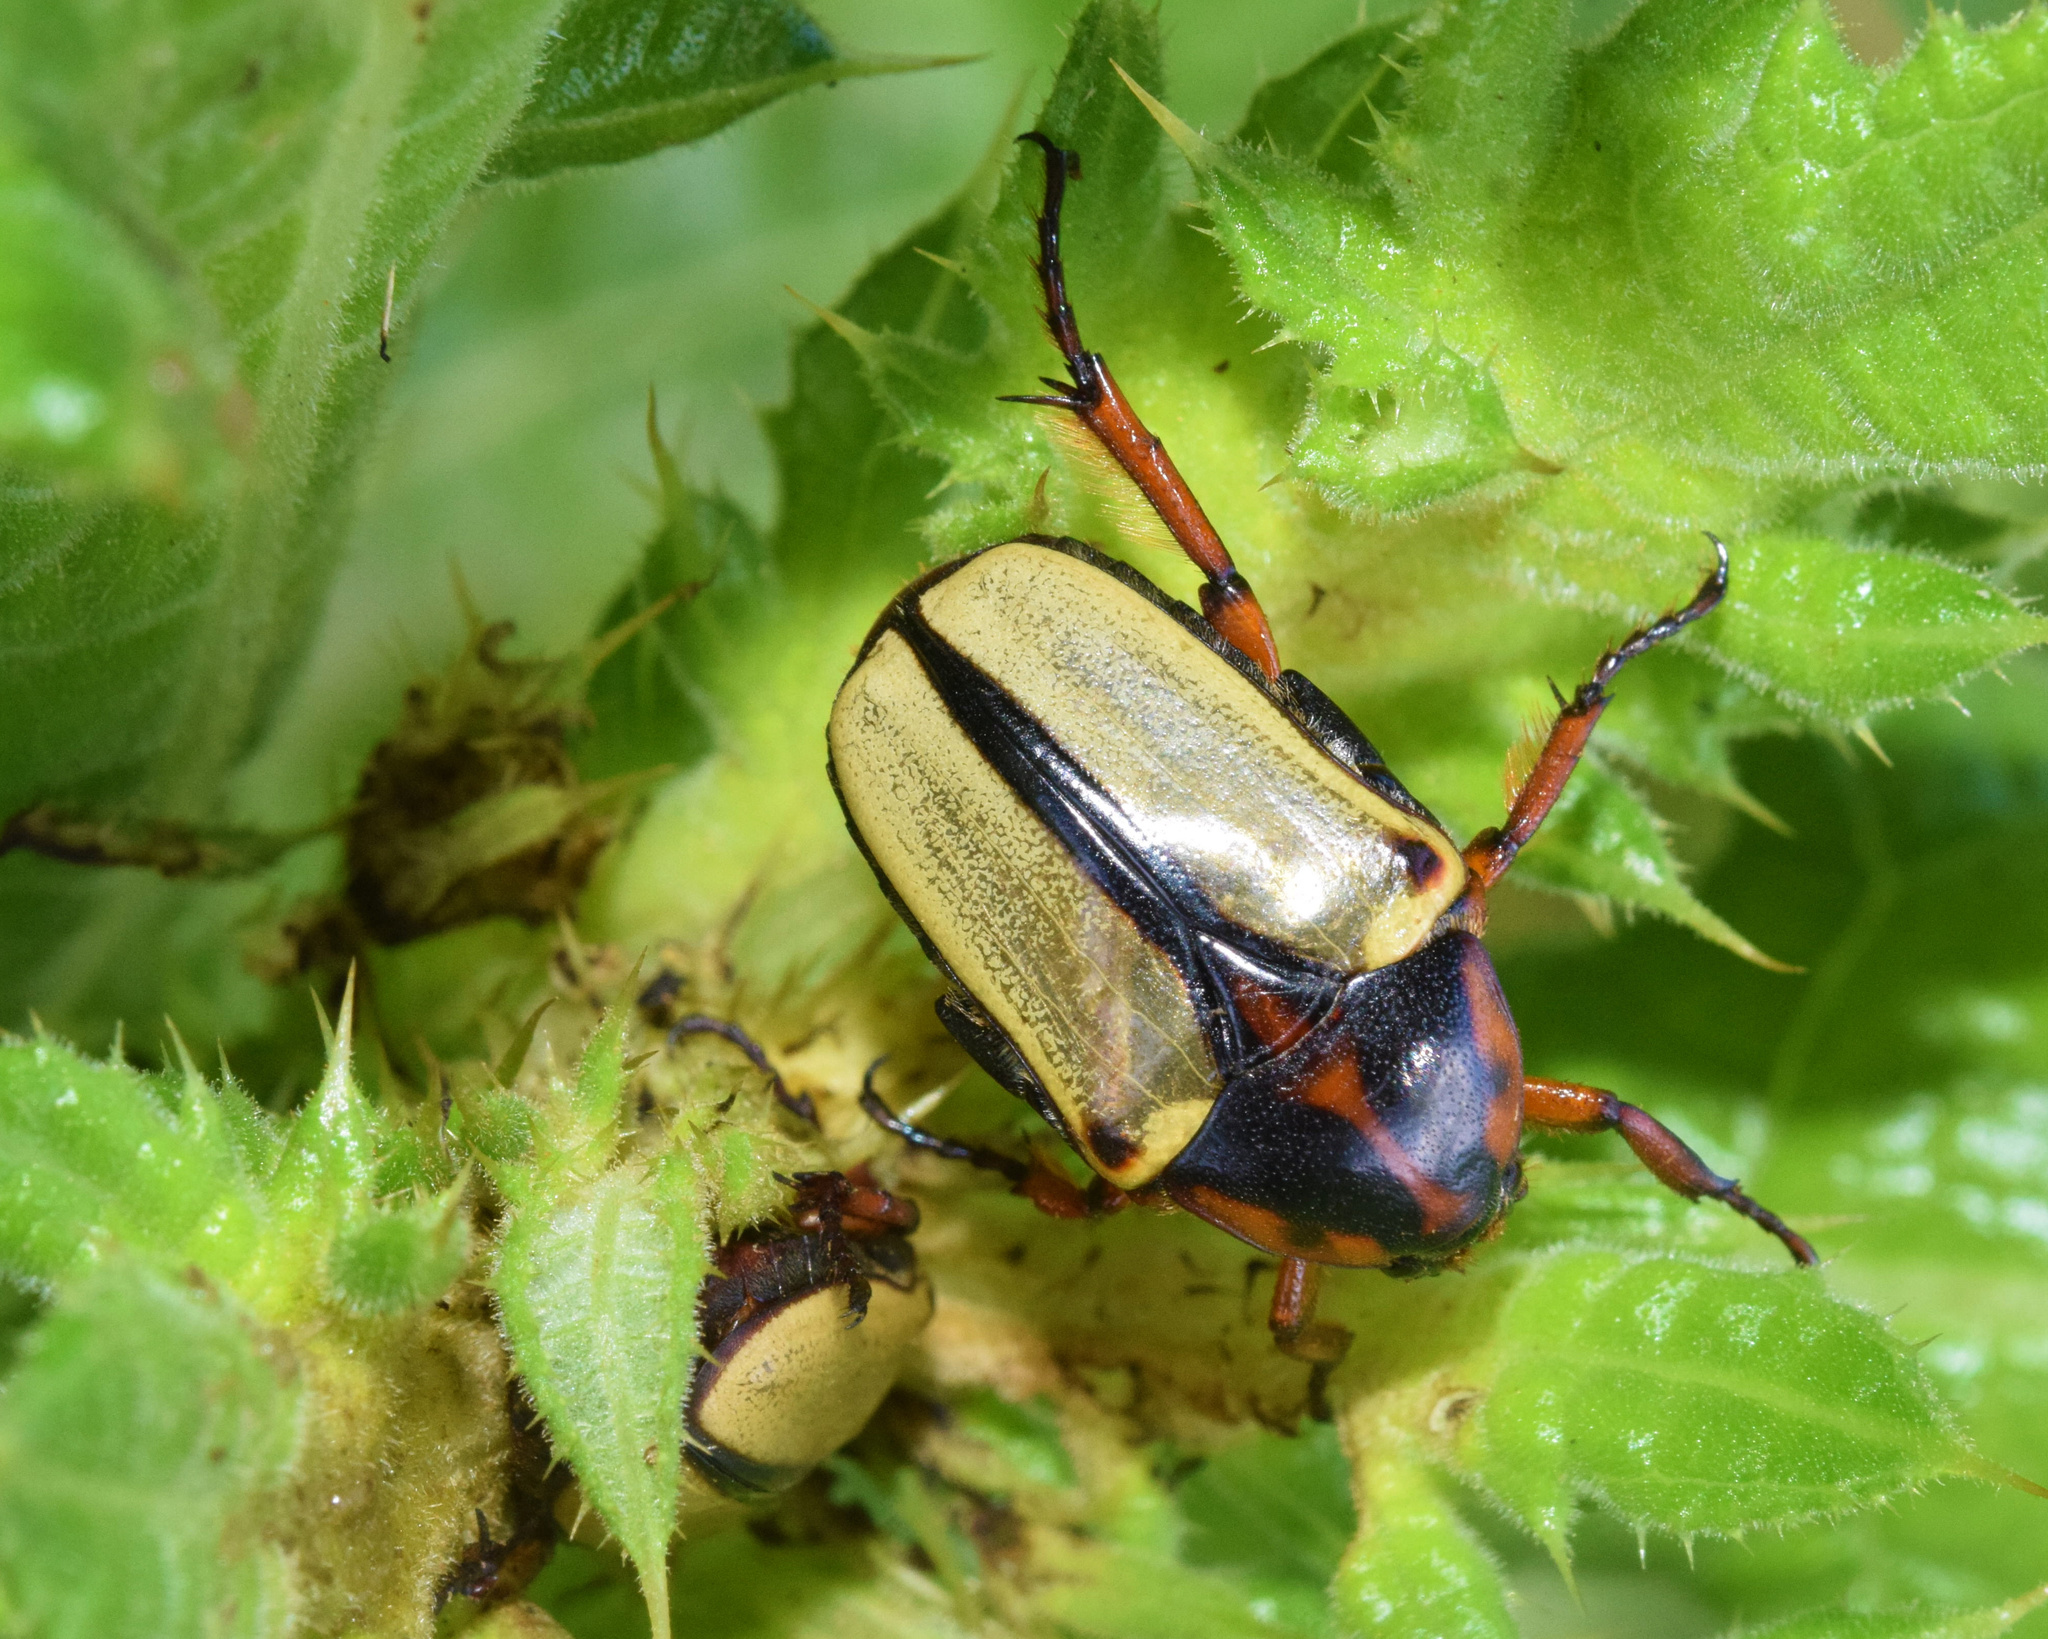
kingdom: Animalia
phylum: Arthropoda
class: Insecta
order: Coleoptera
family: Scarabaeidae
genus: Anisorrhina
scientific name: Anisorrhina algoensis
